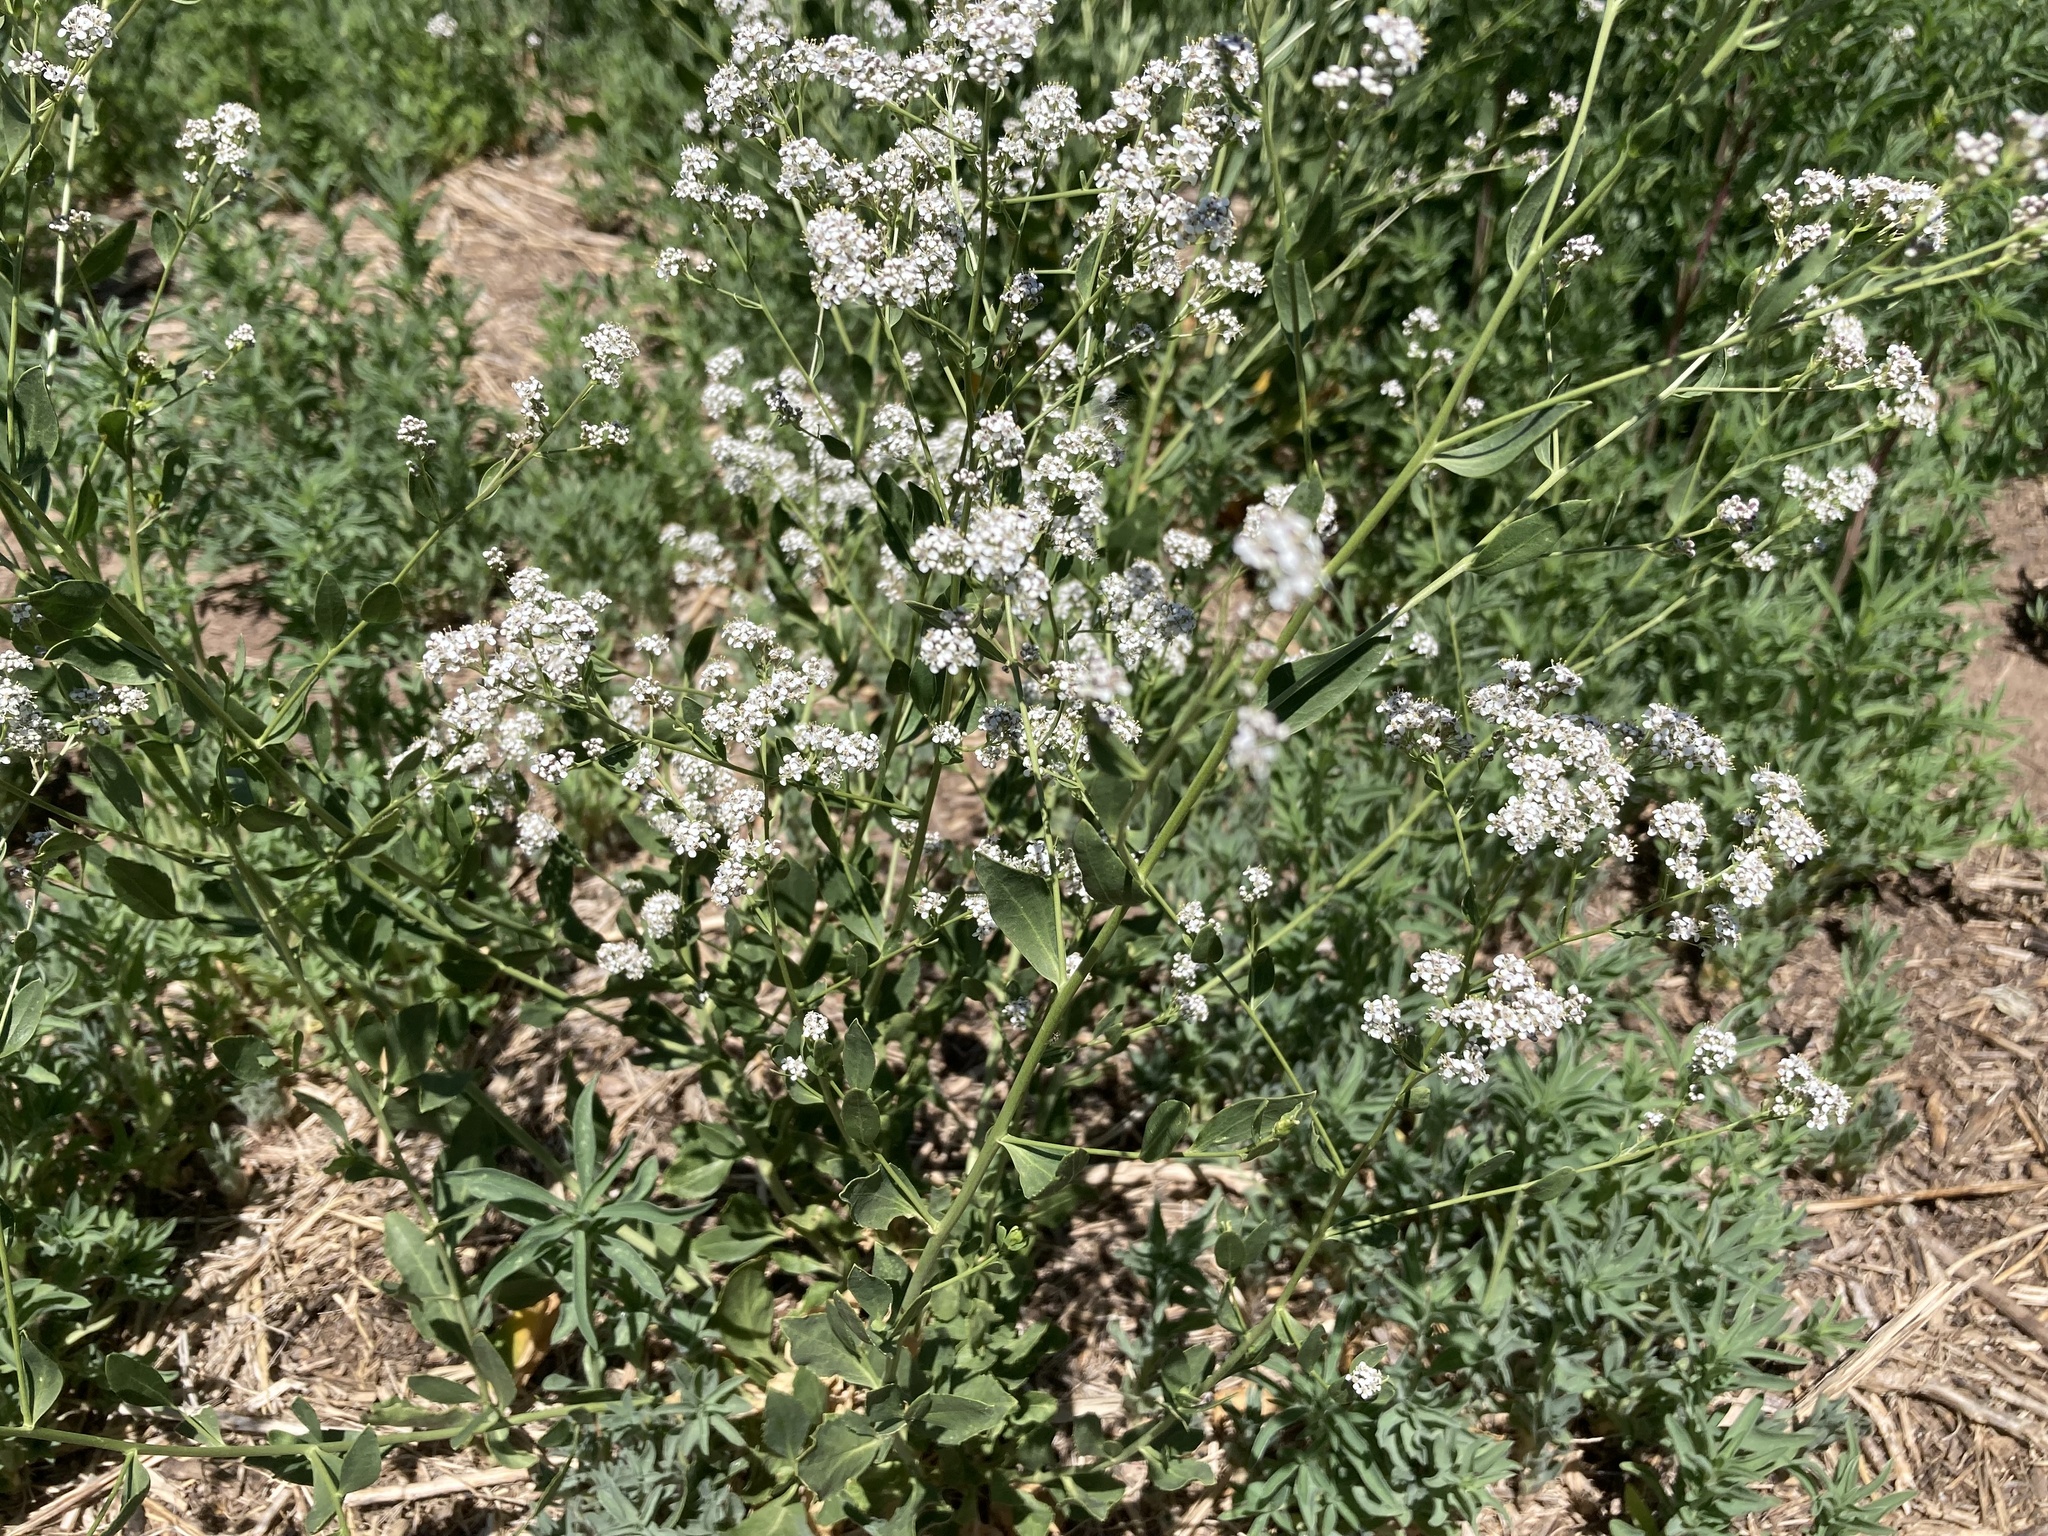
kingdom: Plantae
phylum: Tracheophyta
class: Magnoliopsida
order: Brassicales
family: Brassicaceae
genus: Lepidium
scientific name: Lepidium latifolium
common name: Dittander
